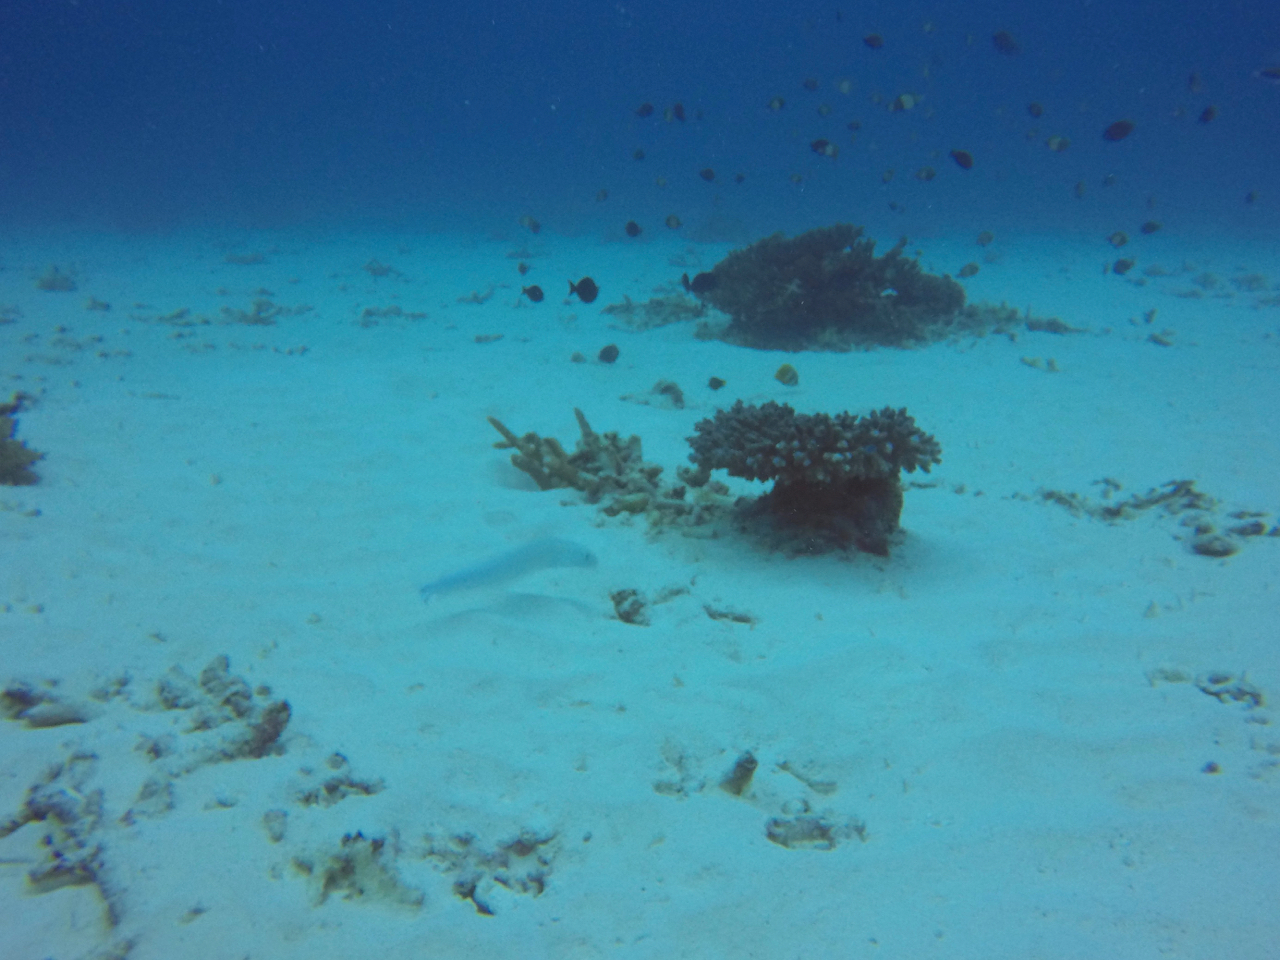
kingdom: Animalia
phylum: Chordata
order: Perciformes
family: Malacanthidae
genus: Malacanthus
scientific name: Malacanthus brevirostris
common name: Flagtail blanquillo
